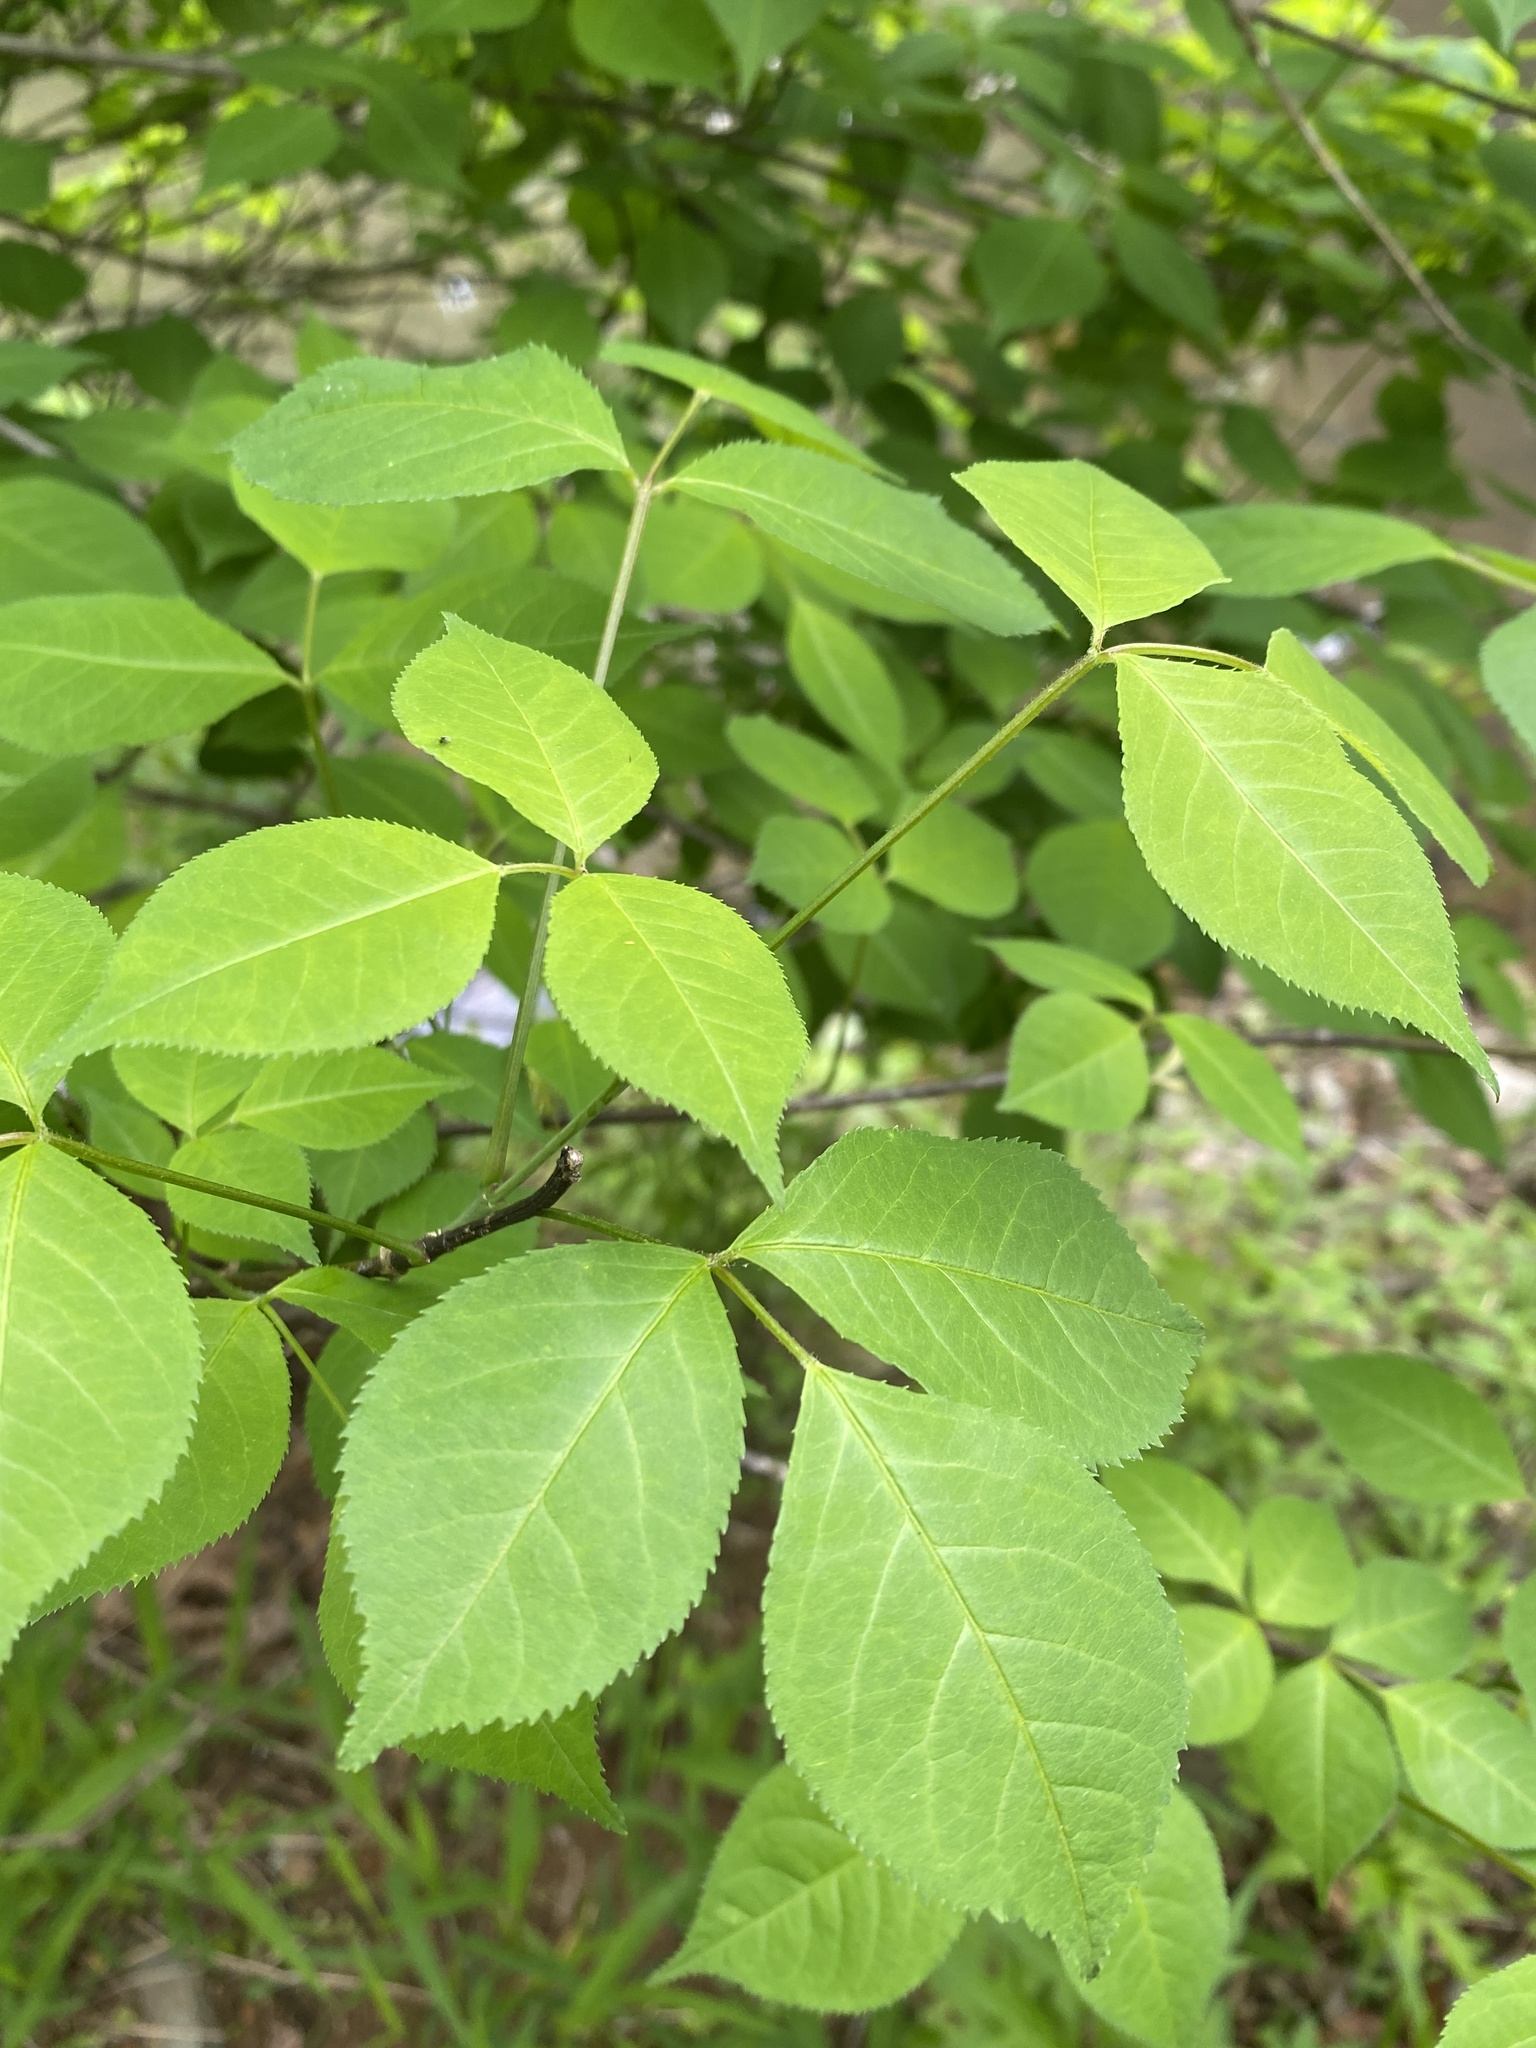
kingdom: Plantae
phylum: Tracheophyta
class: Magnoliopsida
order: Crossosomatales
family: Staphyleaceae
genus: Staphylea
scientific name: Staphylea trifolia
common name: American bladdernut
